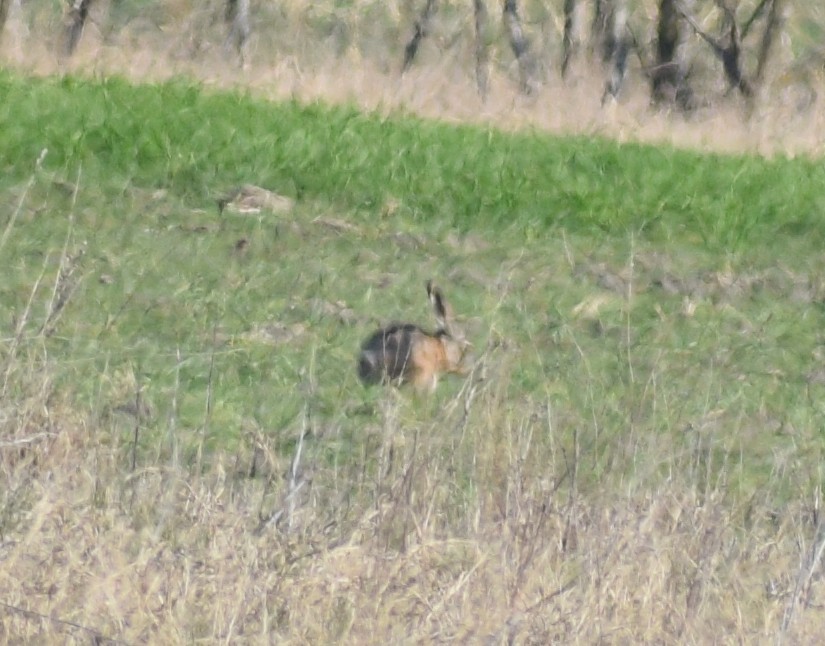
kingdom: Animalia
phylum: Chordata
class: Mammalia
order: Lagomorpha
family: Leporidae
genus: Lepus
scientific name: Lepus europaeus
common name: European hare
